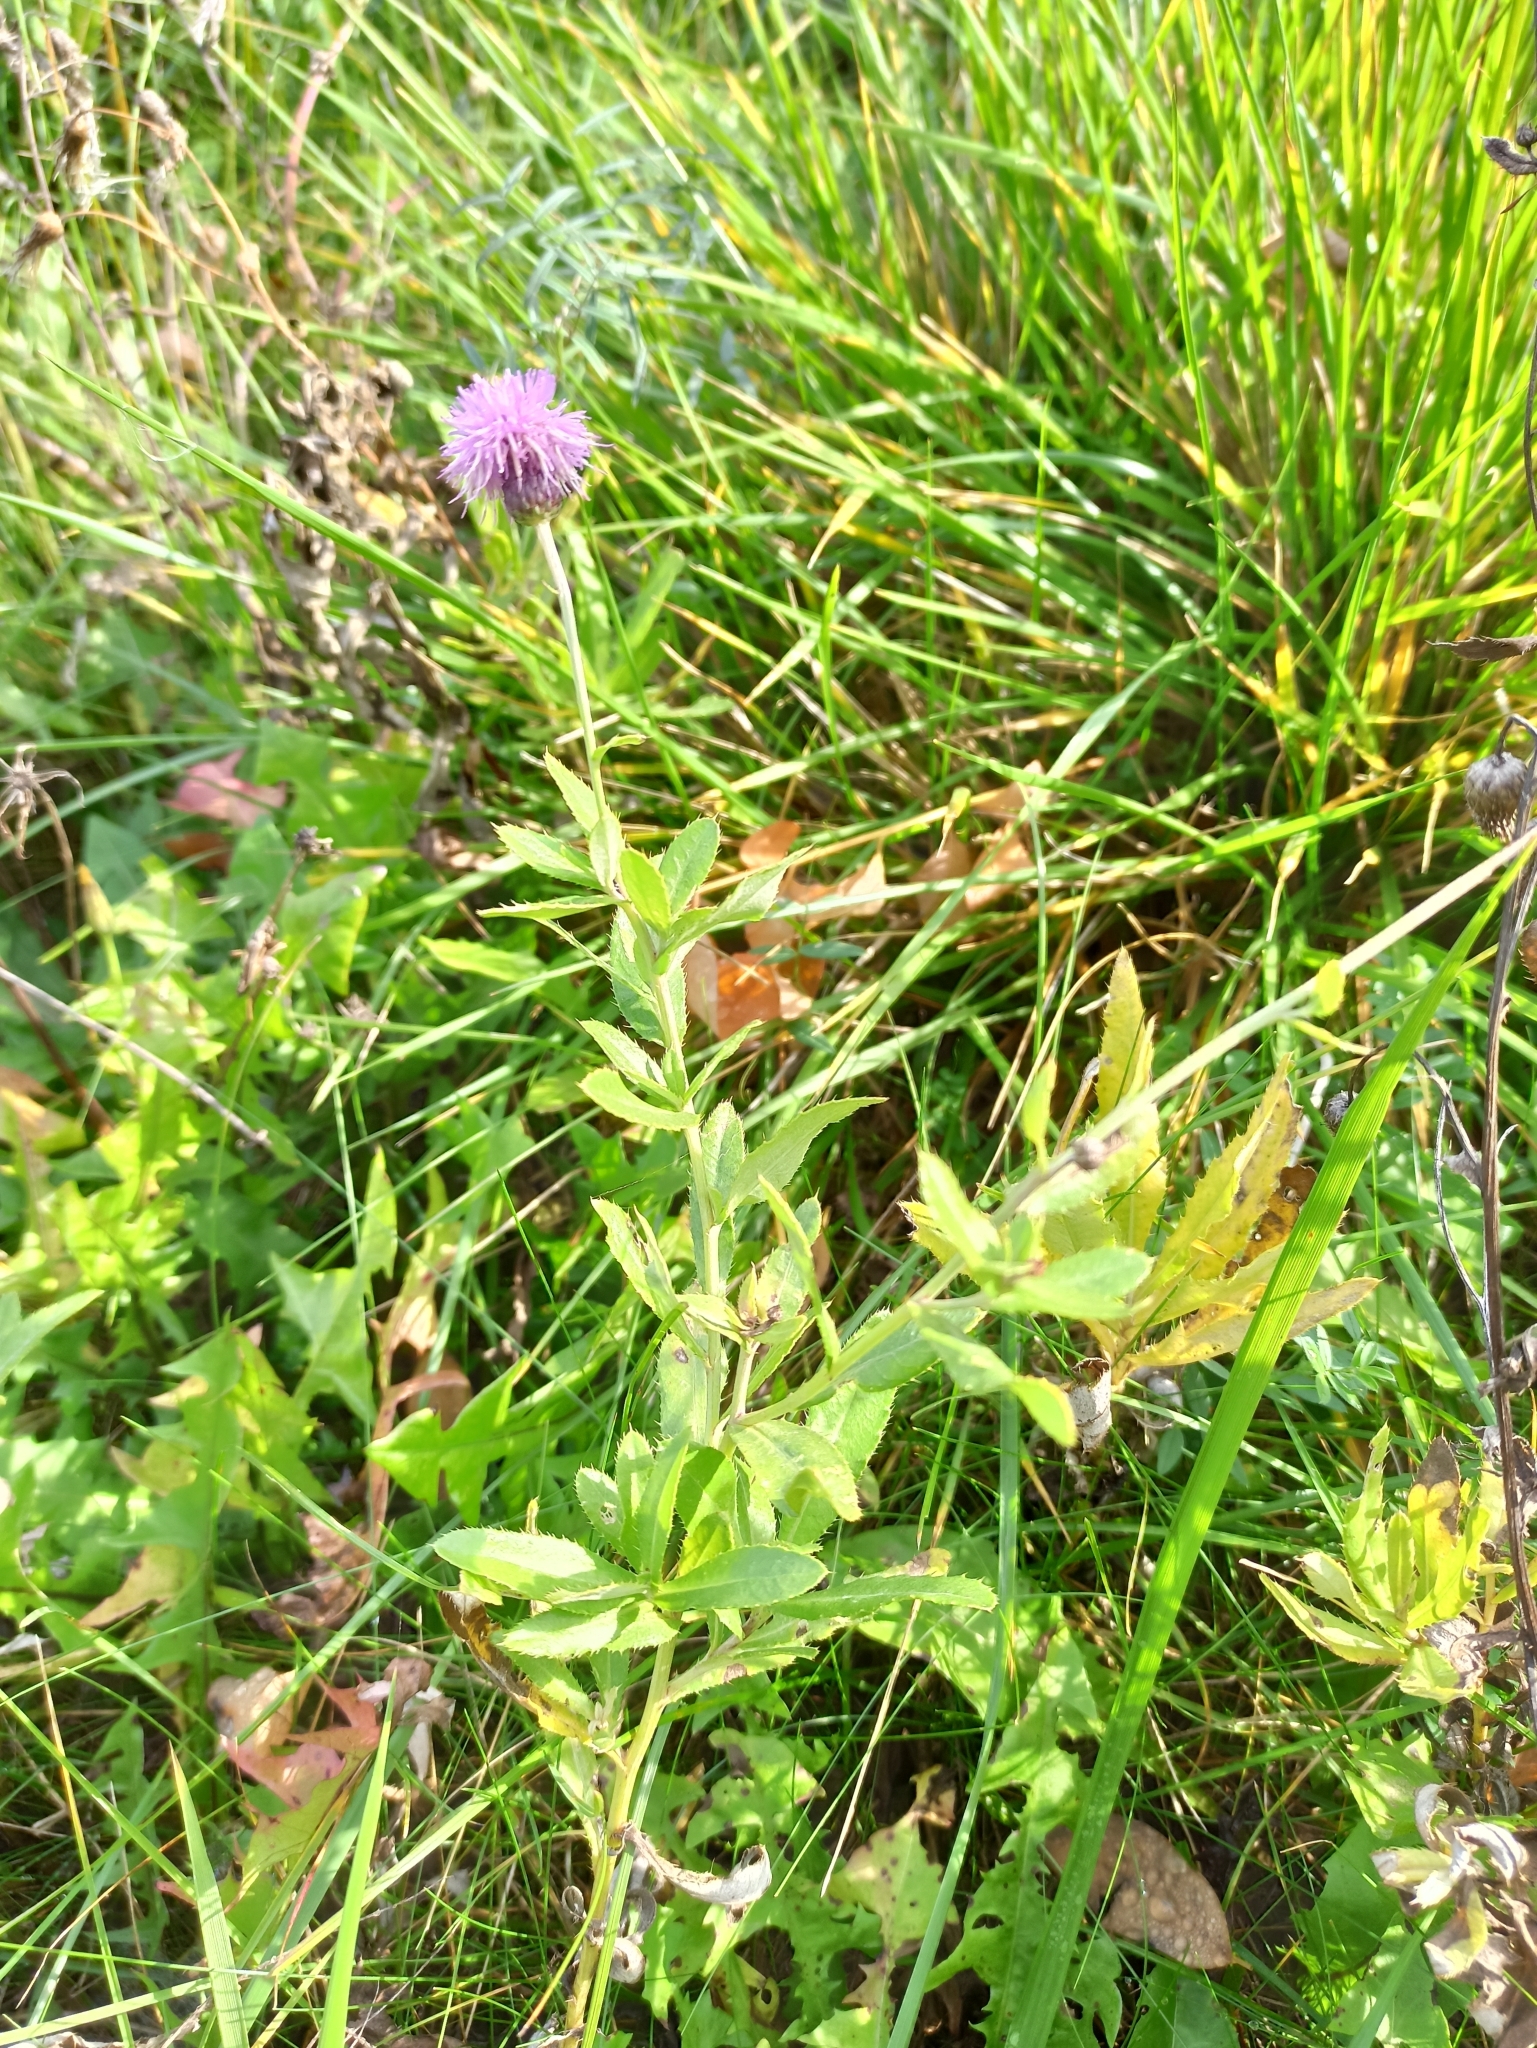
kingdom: Plantae
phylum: Tracheophyta
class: Magnoliopsida
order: Asterales
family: Asteraceae
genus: Cirsium
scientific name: Cirsium arvense
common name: Creeping thistle
